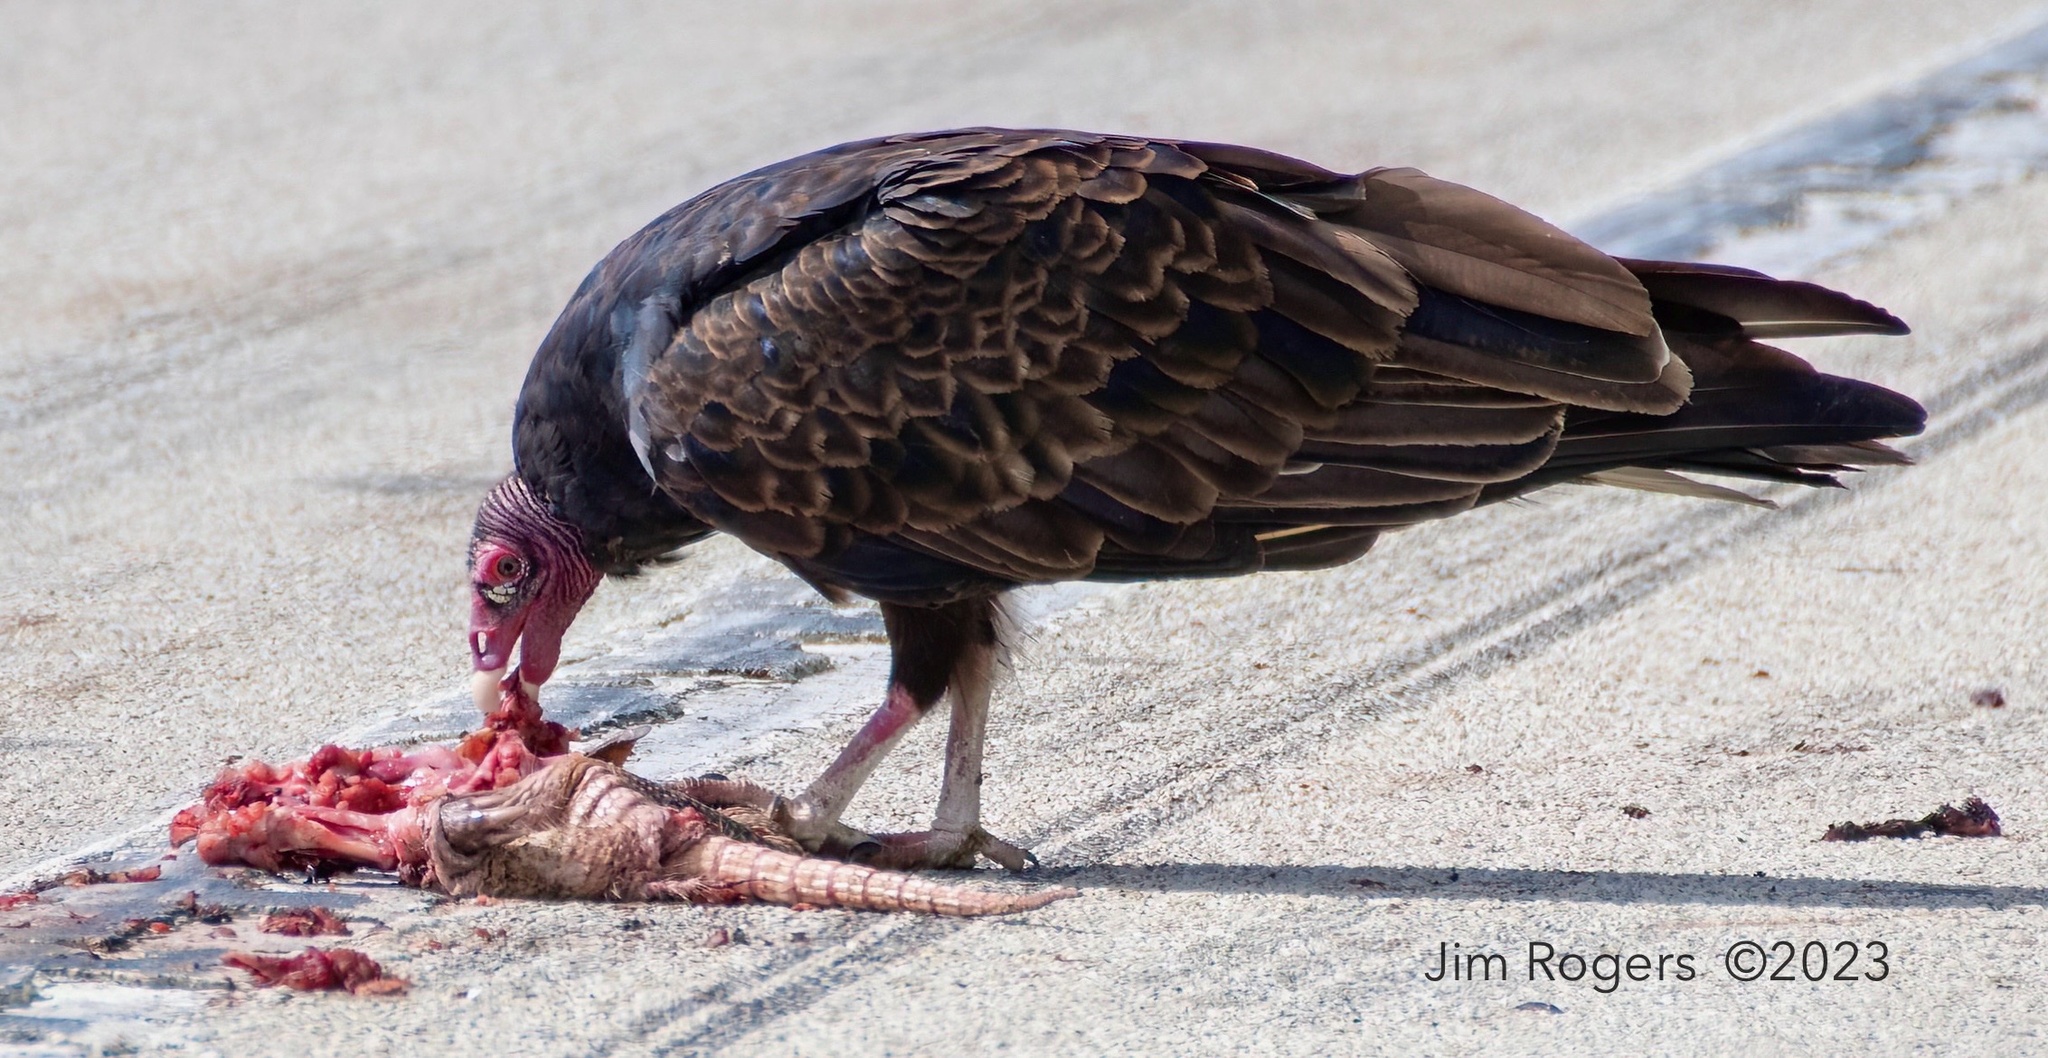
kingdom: Animalia
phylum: Chordata
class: Aves
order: Accipitriformes
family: Cathartidae
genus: Cathartes
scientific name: Cathartes aura
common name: Turkey vulture
